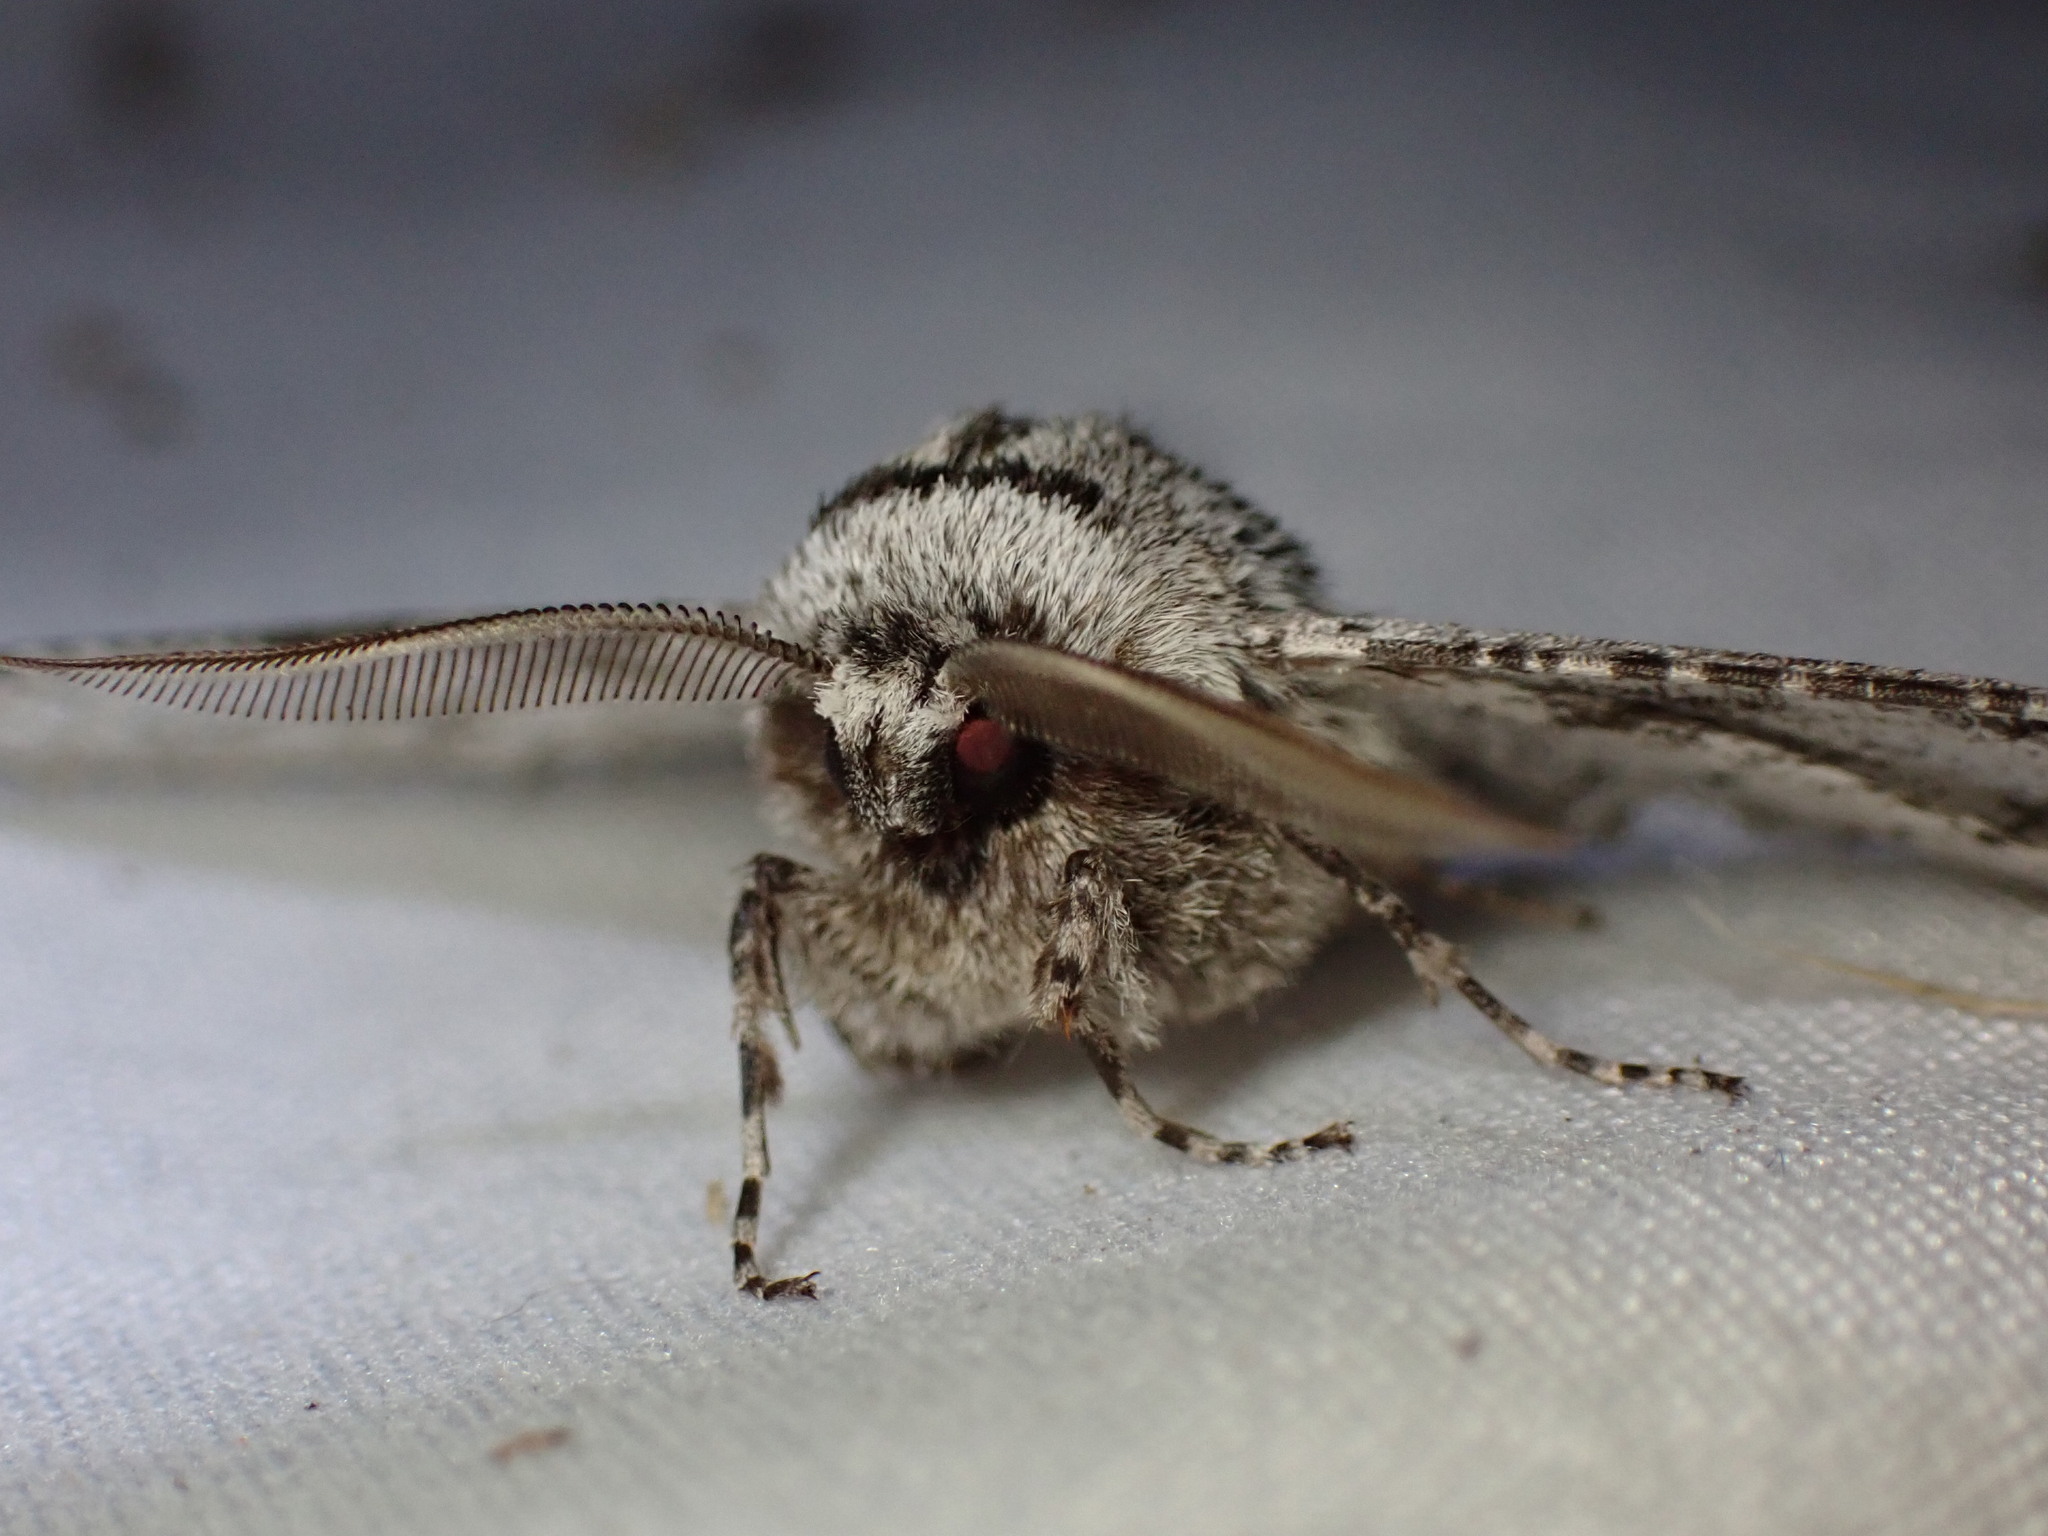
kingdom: Animalia
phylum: Arthropoda
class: Insecta
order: Lepidoptera
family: Geometridae
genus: Biston
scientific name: Biston sinuata
